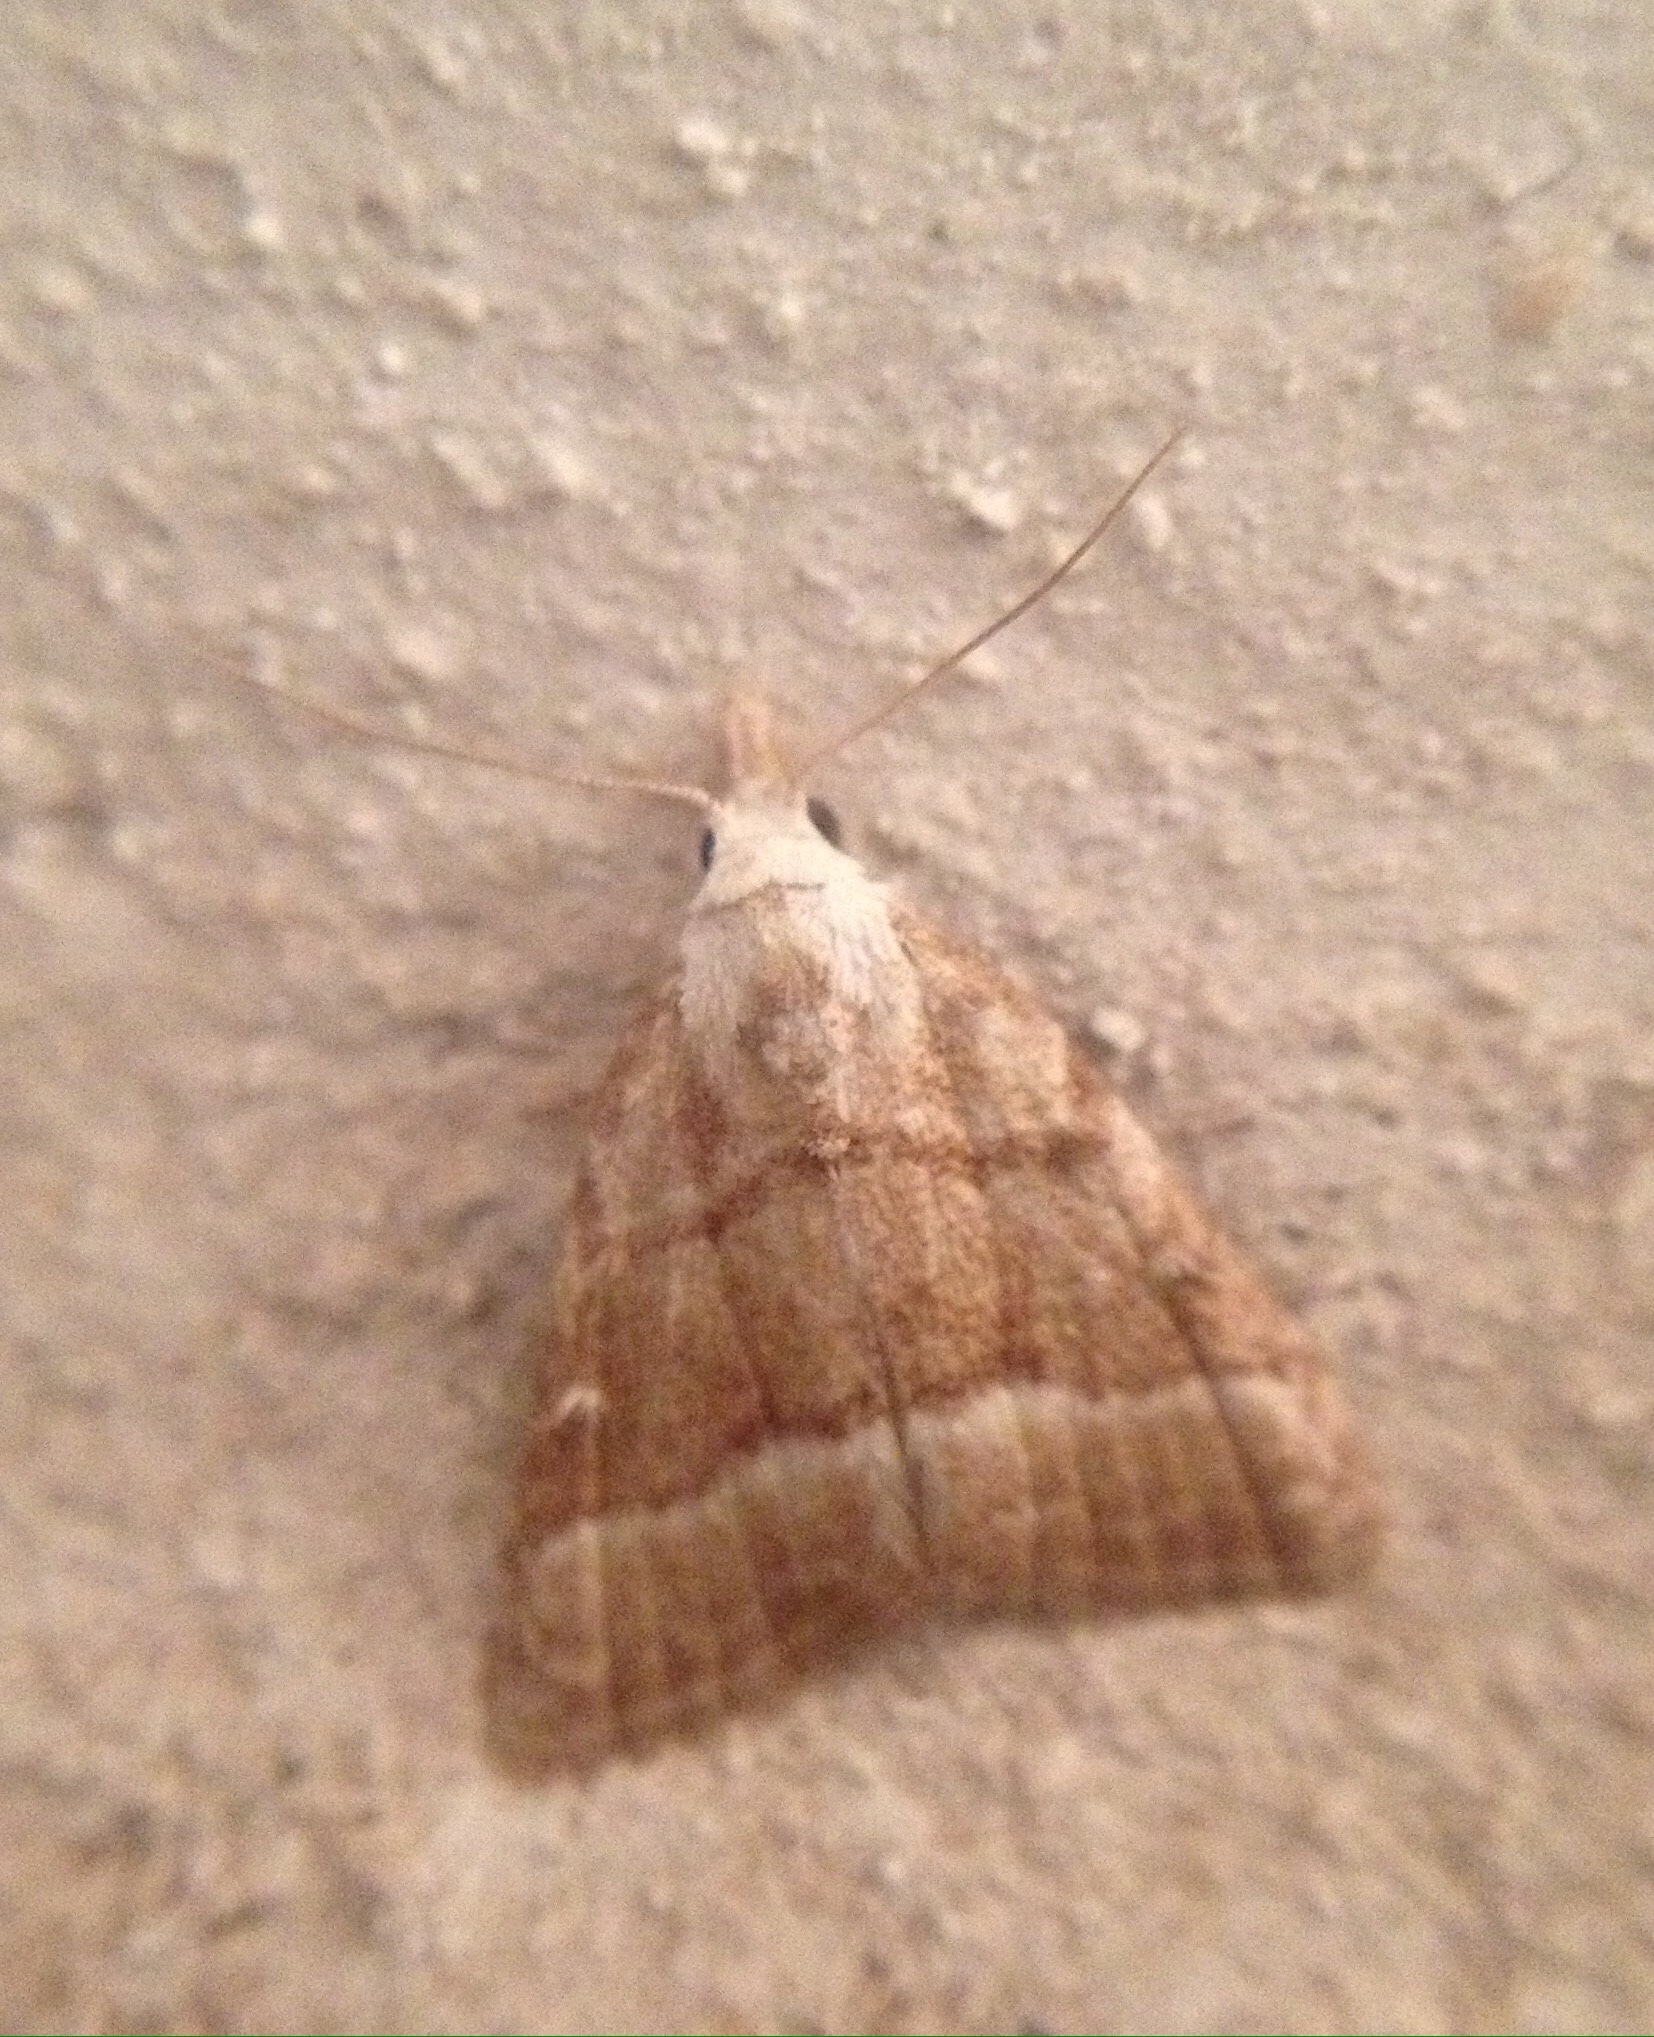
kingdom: Animalia
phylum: Arthropoda
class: Insecta
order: Lepidoptera
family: Nolidae
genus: Nola
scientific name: Nola aerugula
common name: Scarce black arches
